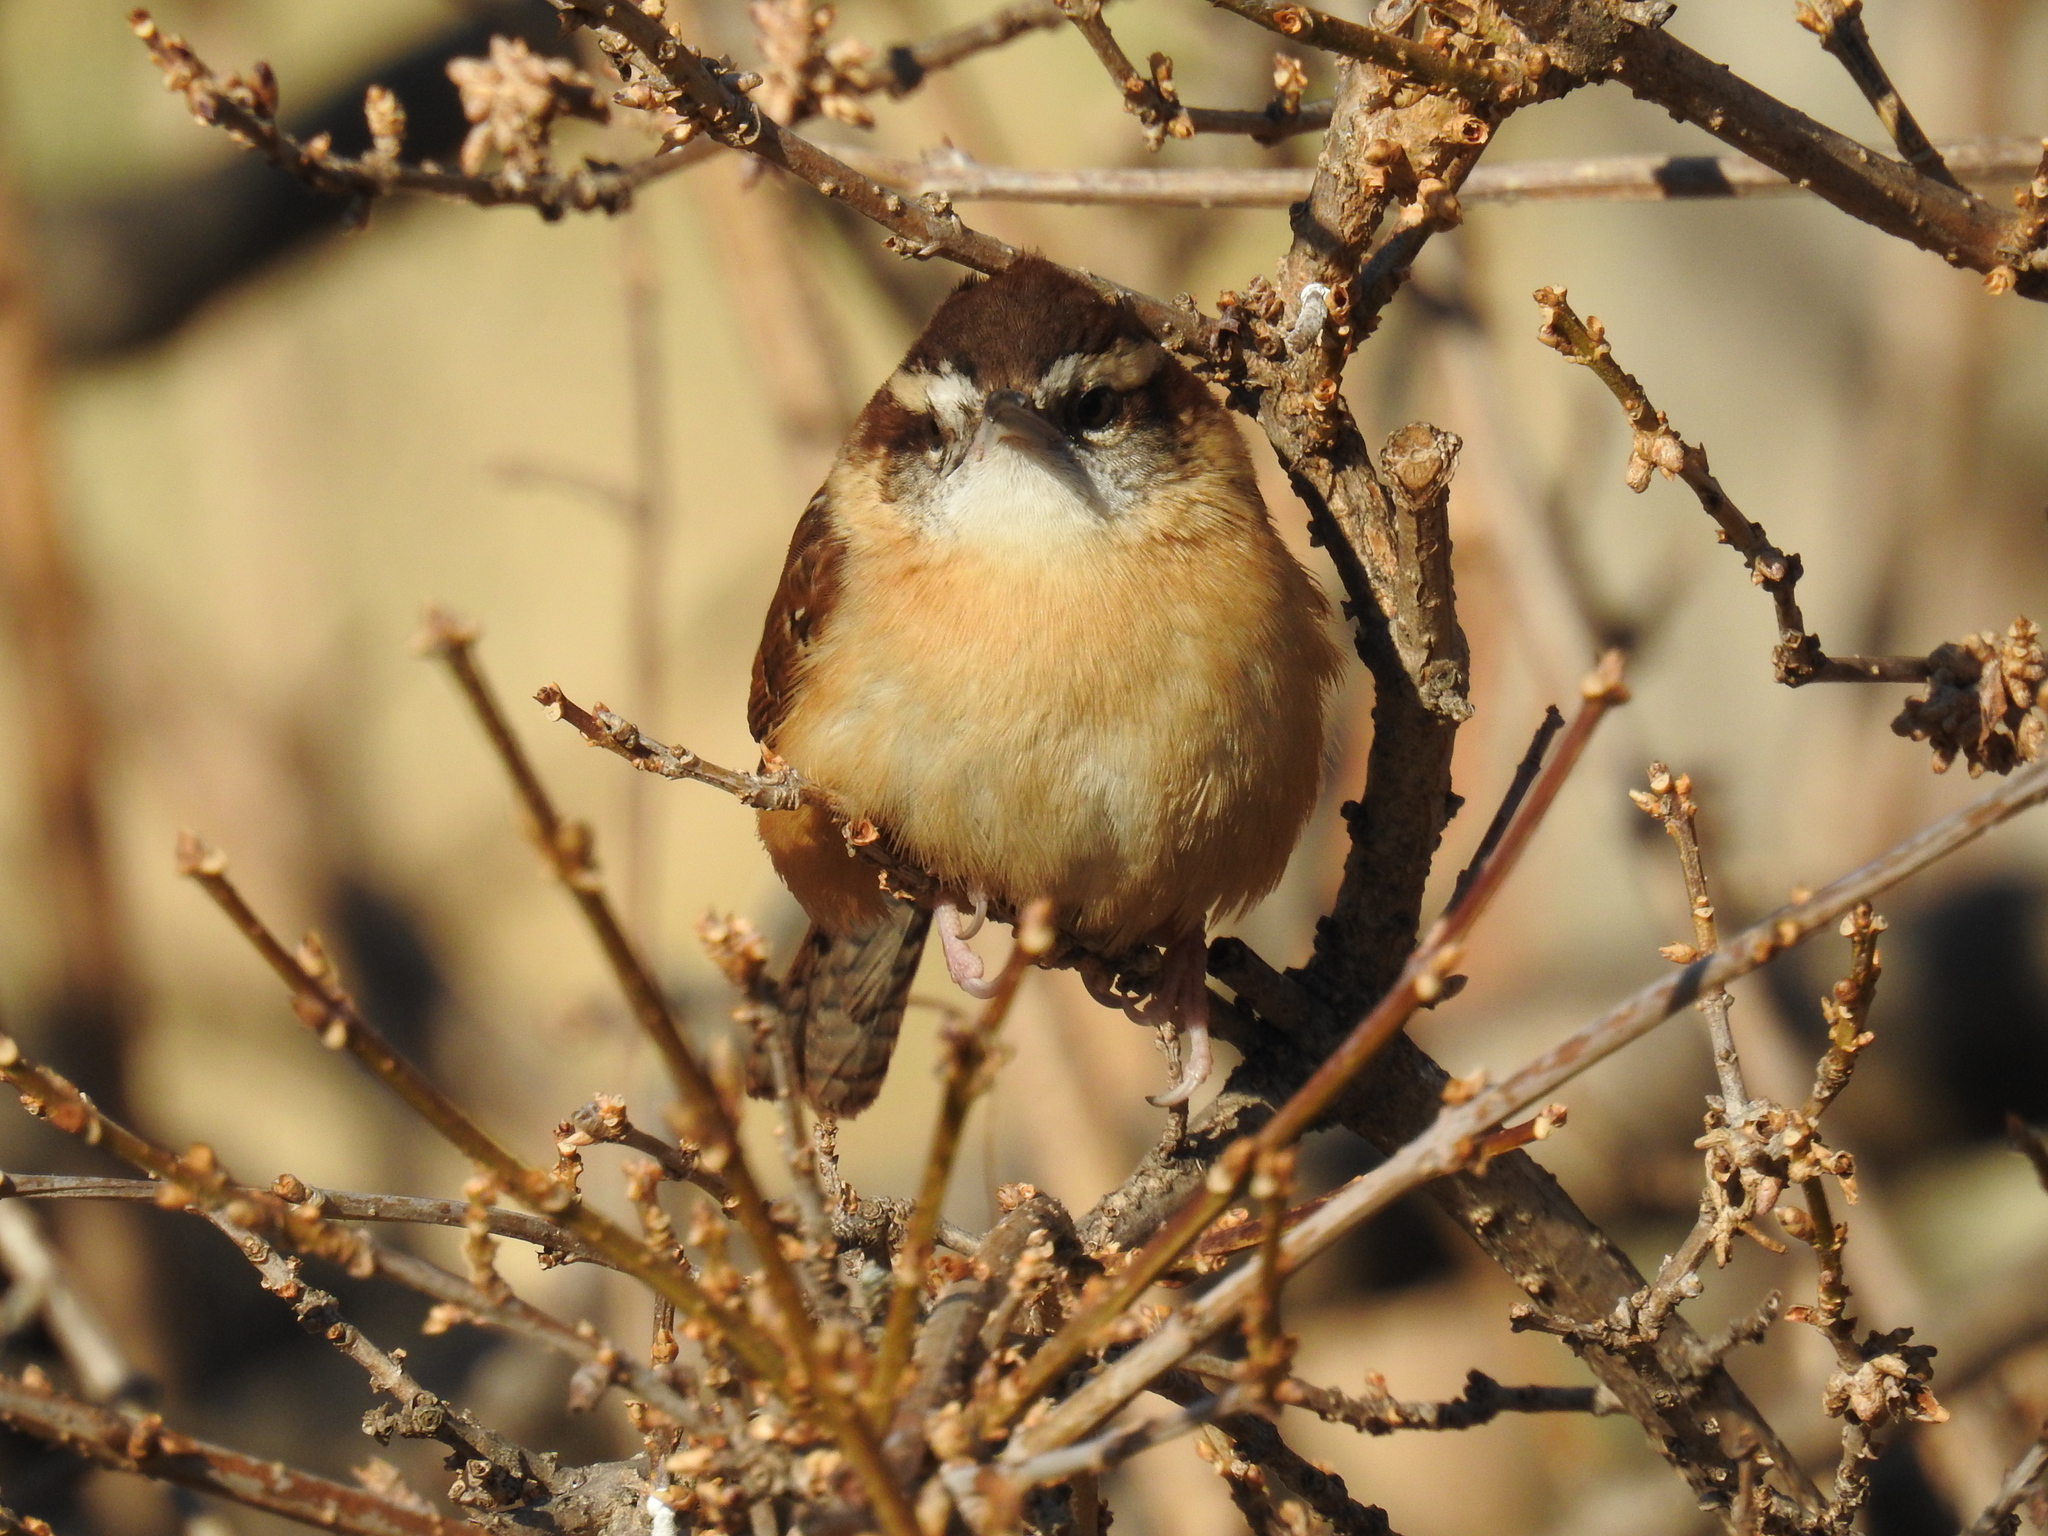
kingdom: Animalia
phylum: Chordata
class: Aves
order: Passeriformes
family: Troglodytidae
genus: Thryothorus
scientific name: Thryothorus ludovicianus
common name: Carolina wren
